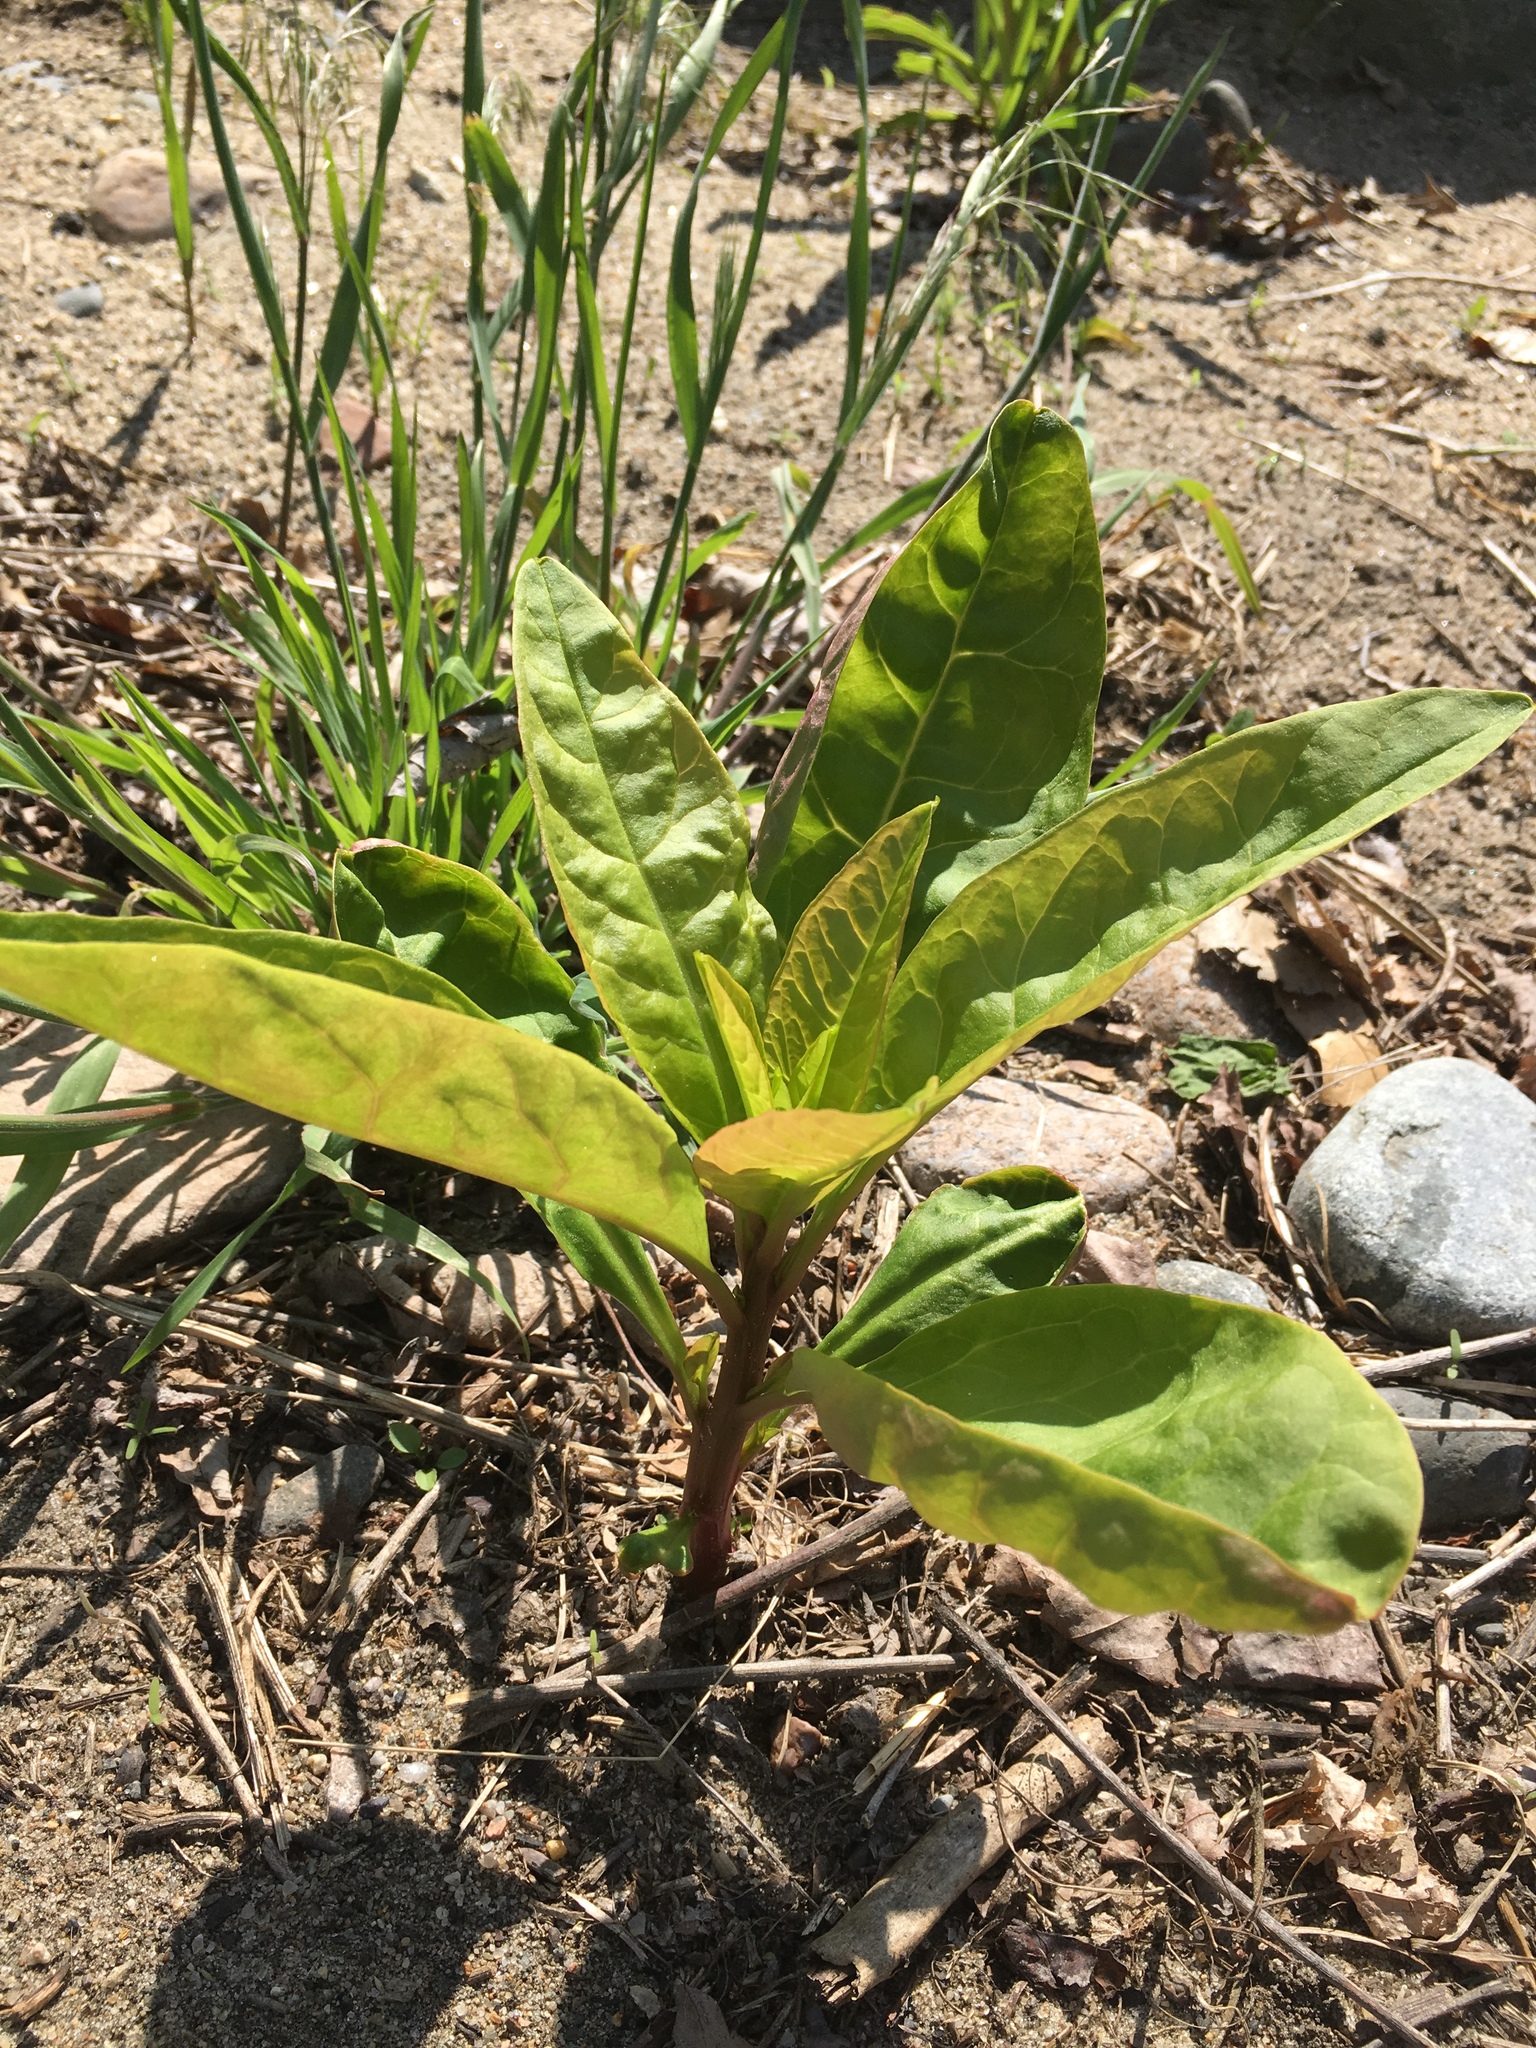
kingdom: Plantae
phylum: Tracheophyta
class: Magnoliopsida
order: Caryophyllales
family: Phytolaccaceae
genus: Phytolacca
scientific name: Phytolacca americana
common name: American pokeweed
